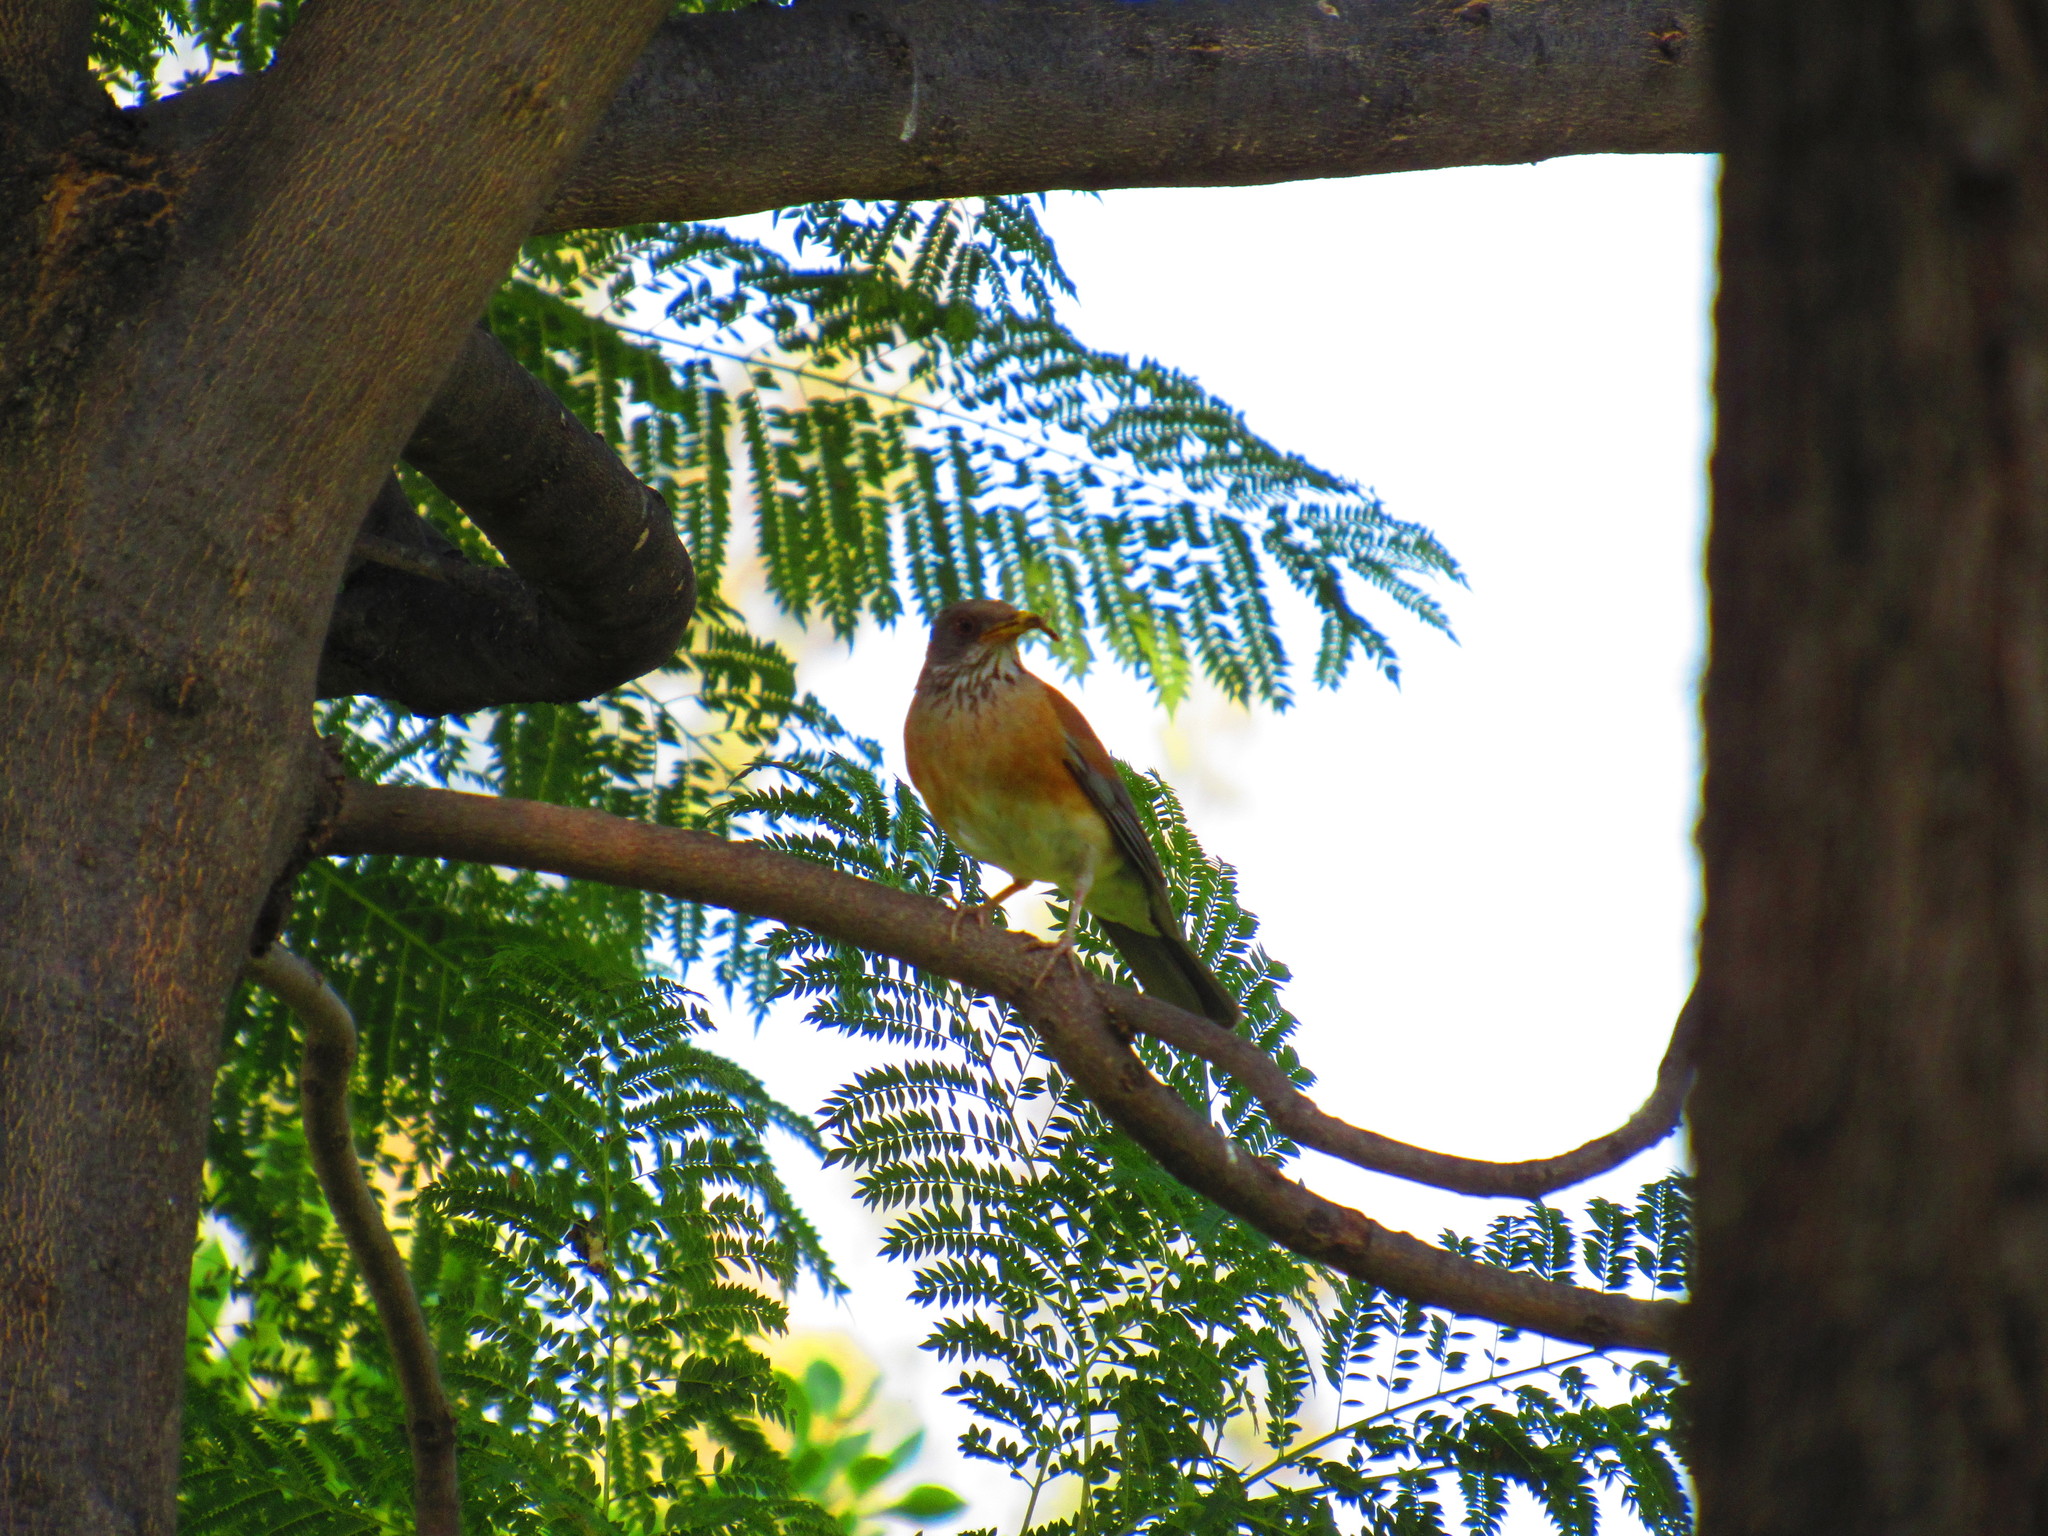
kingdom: Animalia
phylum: Chordata
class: Aves
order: Passeriformes
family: Turdidae
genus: Turdus
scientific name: Turdus rufopalliatus
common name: Rufous-backed robin
